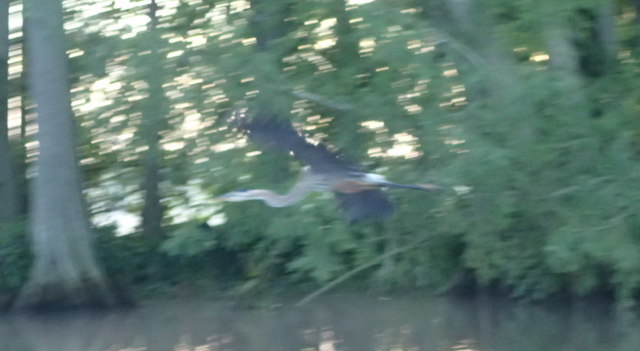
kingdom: Animalia
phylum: Chordata
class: Aves
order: Pelecaniformes
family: Ardeidae
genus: Ardea
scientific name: Ardea herodias
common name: Great blue heron
